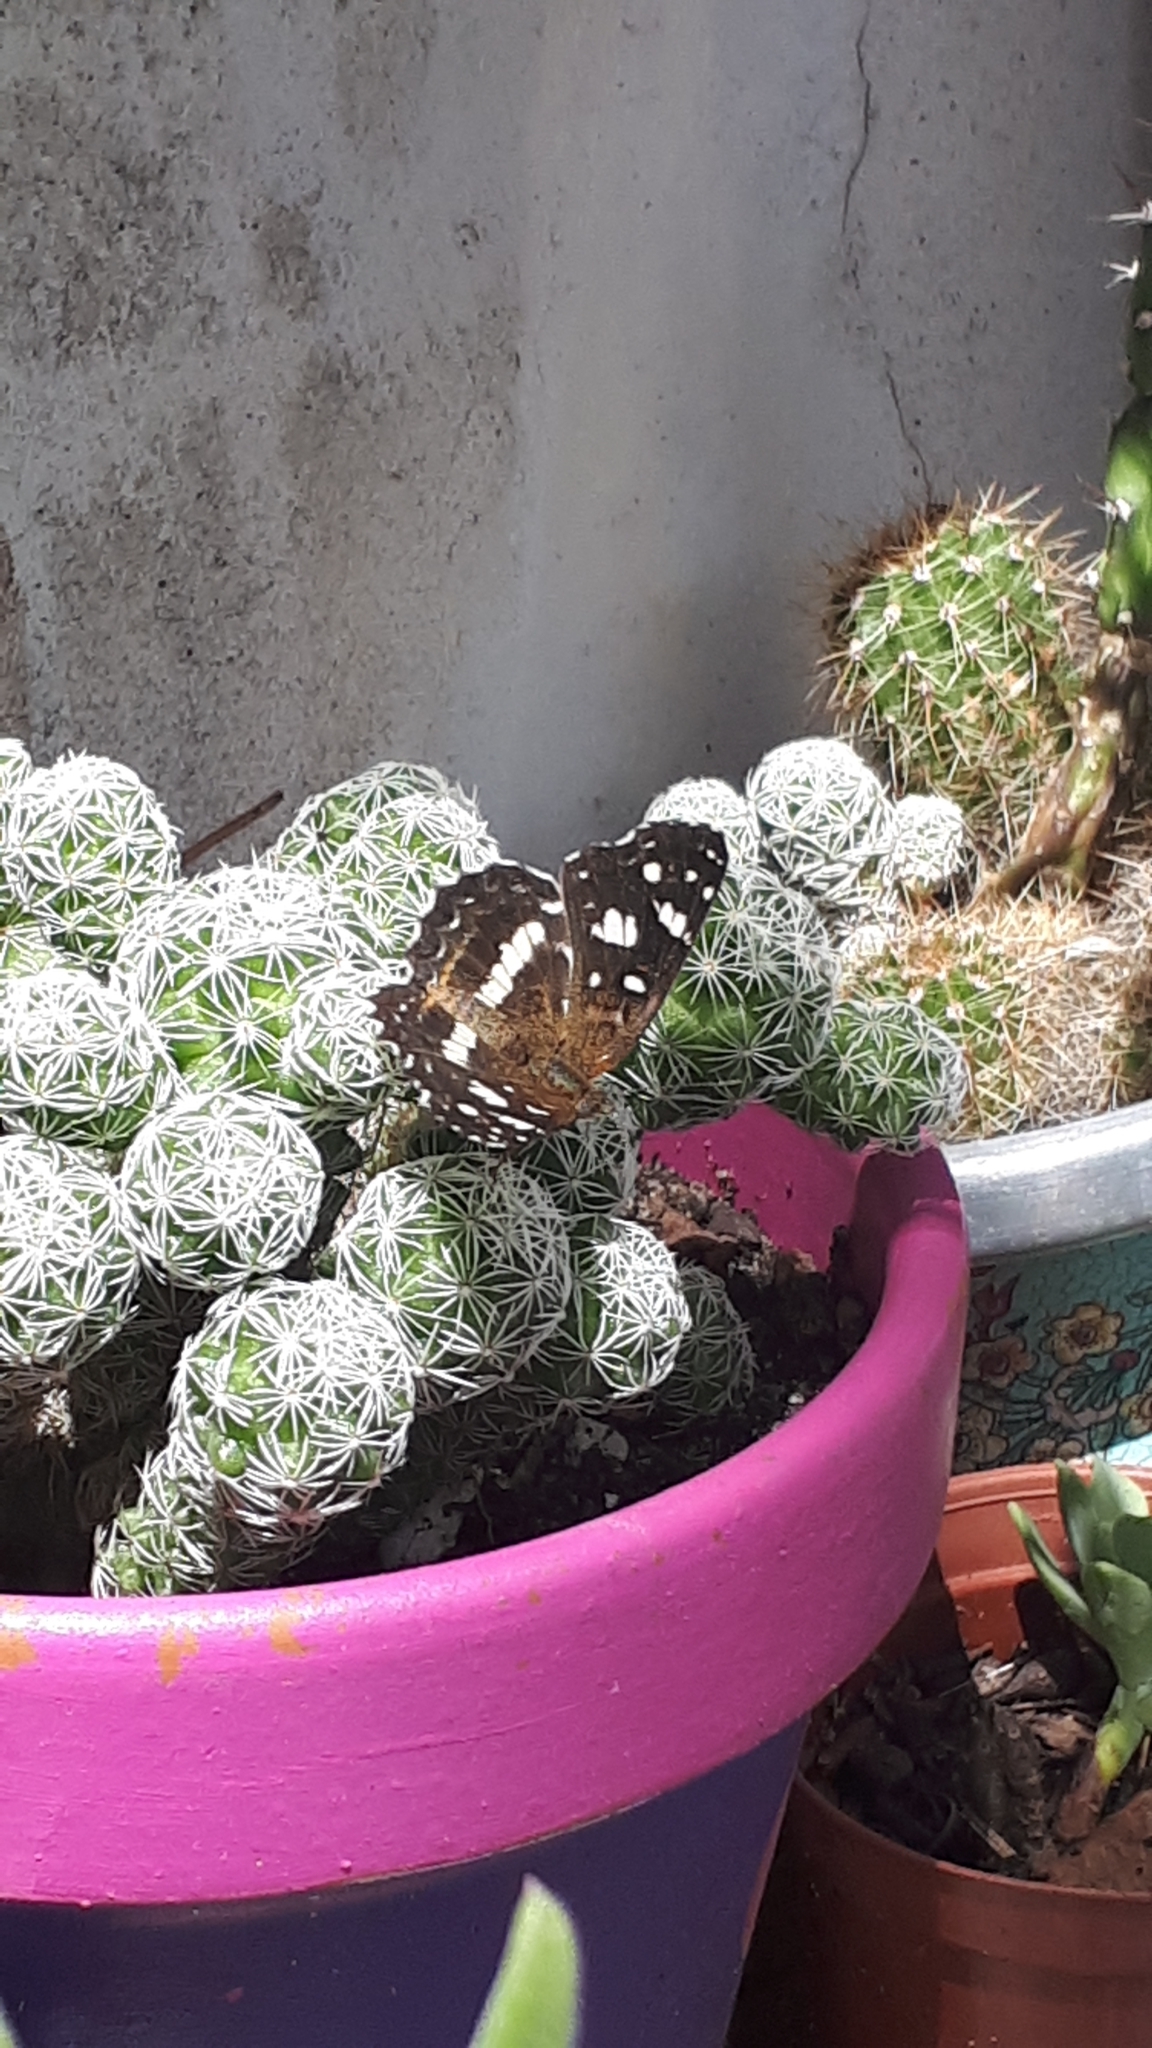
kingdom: Animalia
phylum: Arthropoda
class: Insecta
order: Lepidoptera
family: Nymphalidae
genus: Ortilia
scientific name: Ortilia ithra
